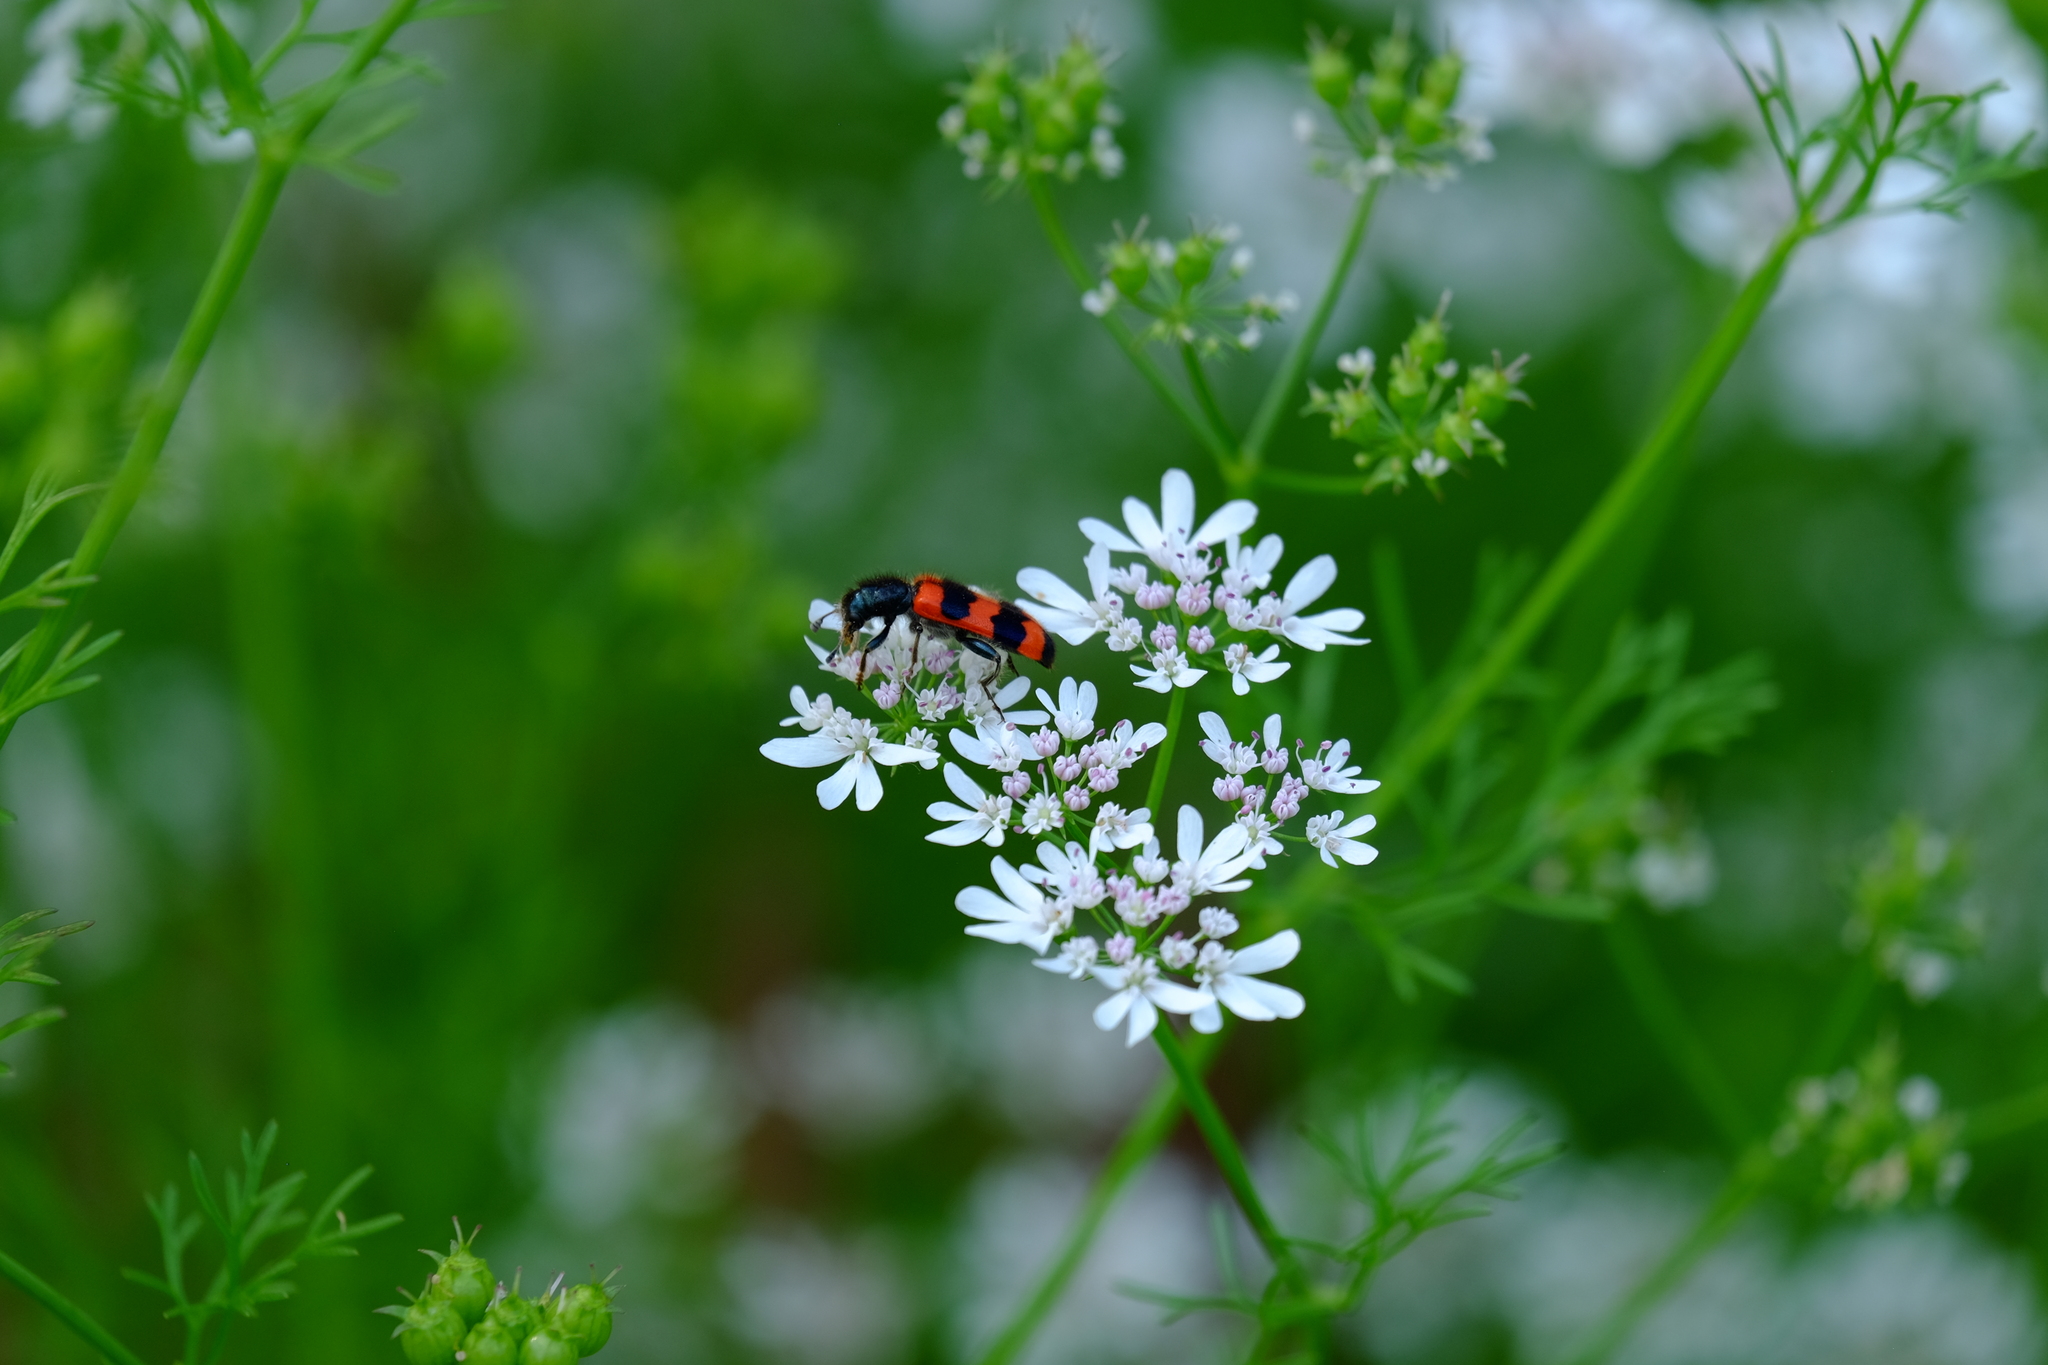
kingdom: Animalia
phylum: Arthropoda
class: Insecta
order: Coleoptera
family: Cleridae
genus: Trichodes
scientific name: Trichodes apiarius
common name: Bee-eating beetle
